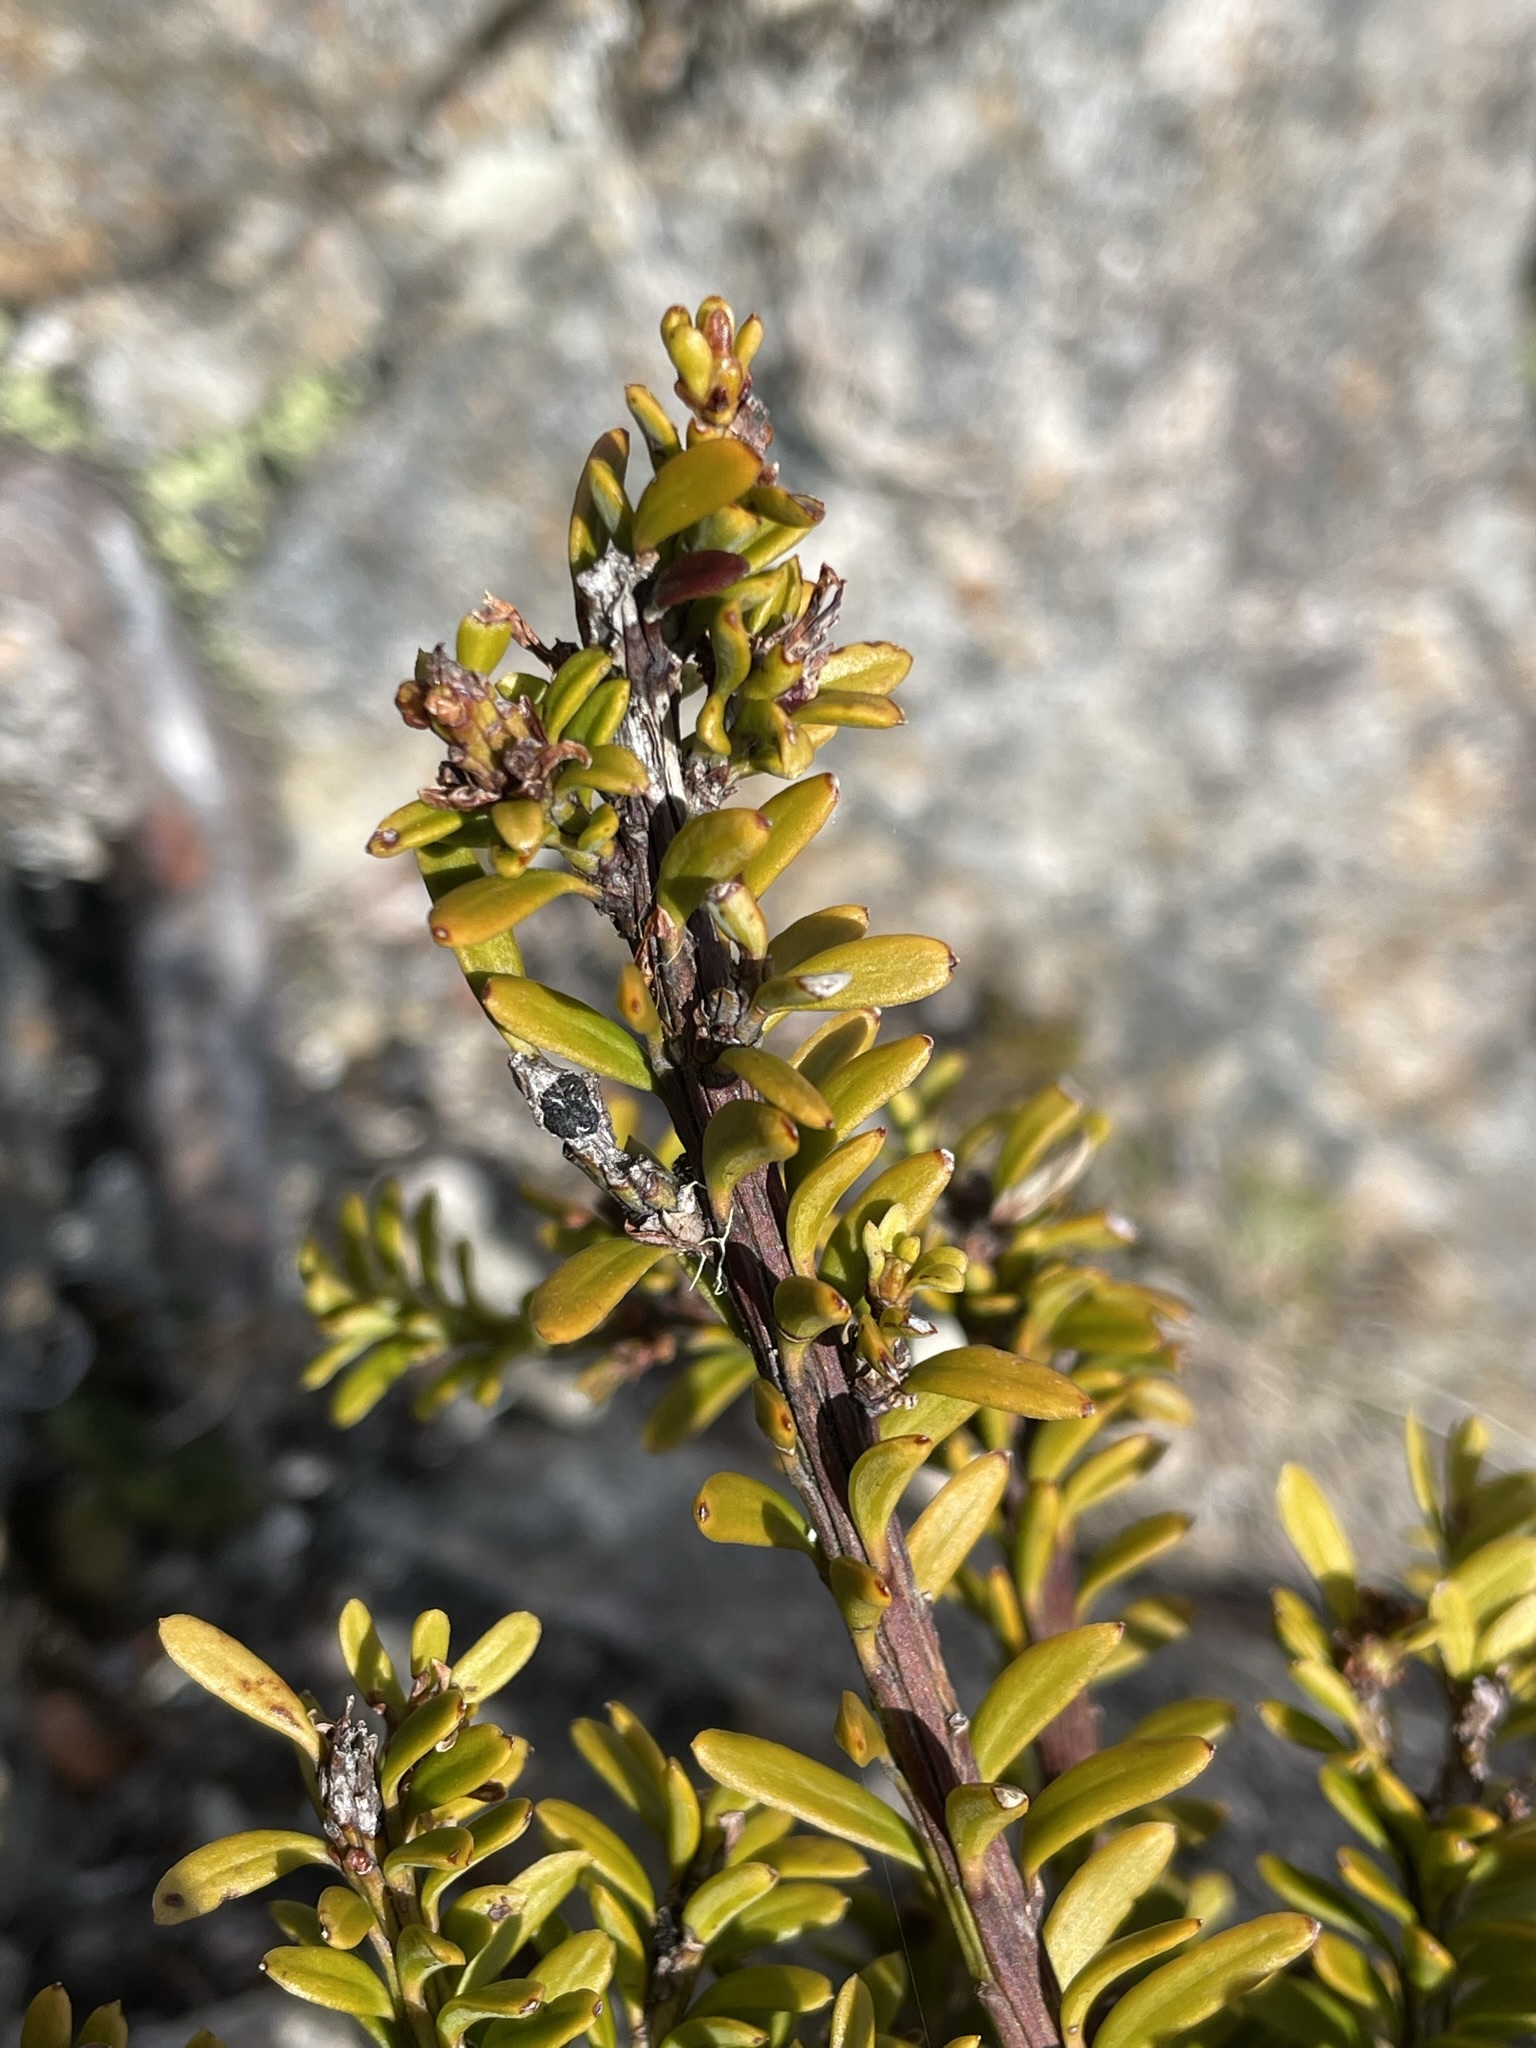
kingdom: Plantae
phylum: Tracheophyta
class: Pinopsida
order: Pinales
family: Podocarpaceae
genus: Podocarpus
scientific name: Podocarpus nivalis
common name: Alpine totara
